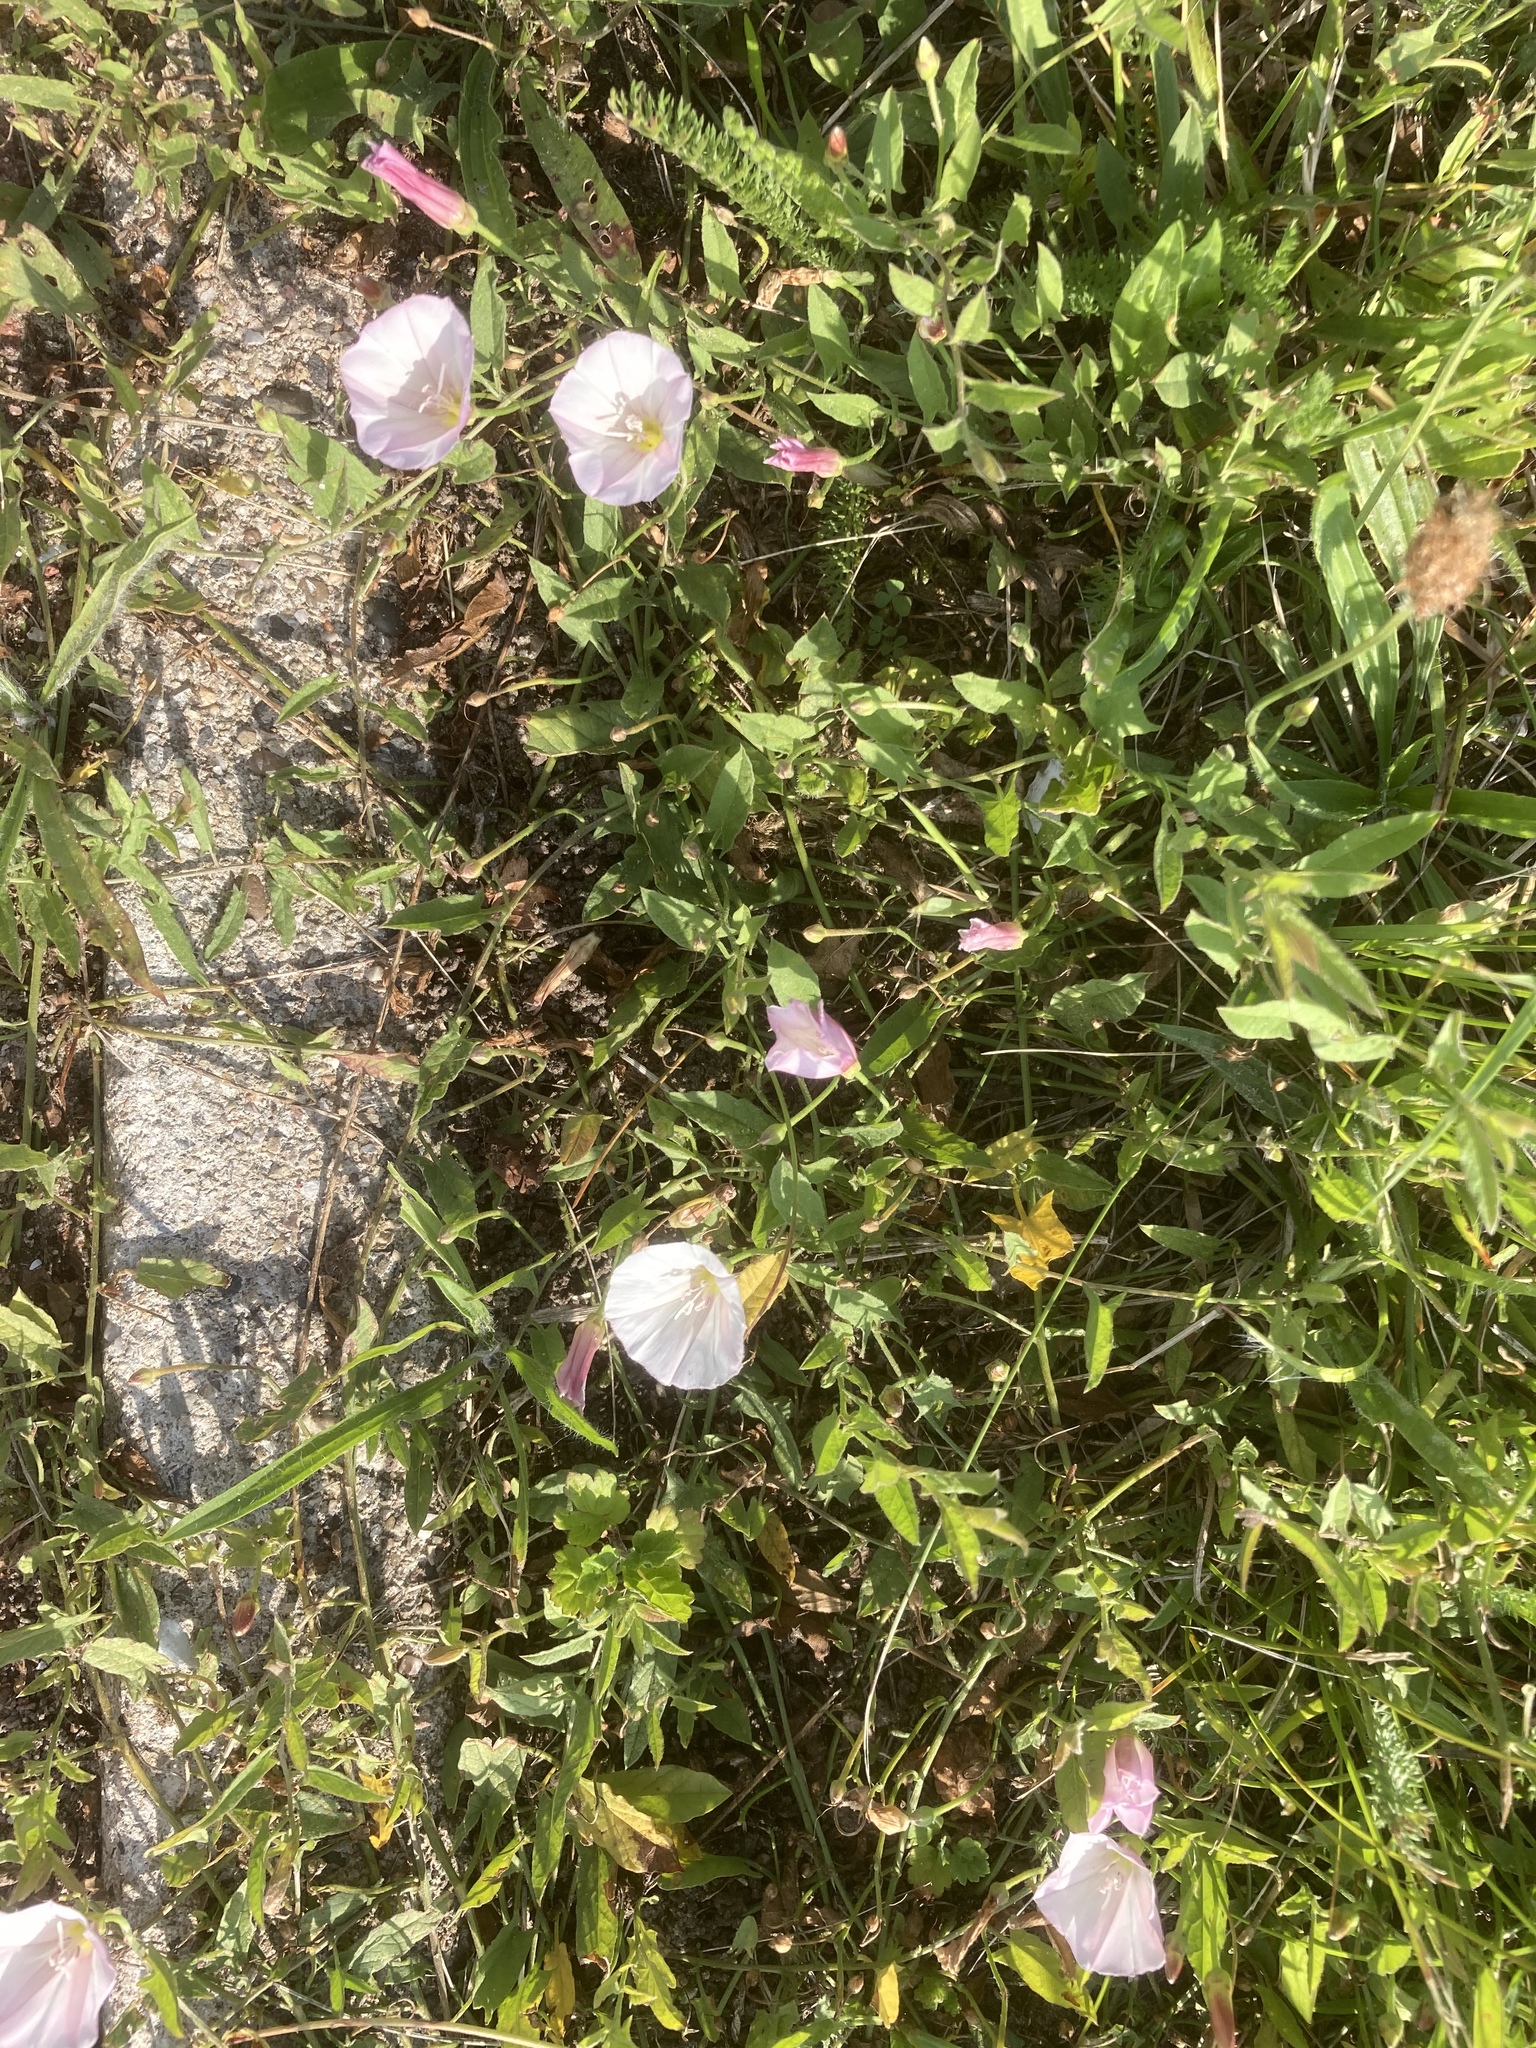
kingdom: Plantae
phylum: Tracheophyta
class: Magnoliopsida
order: Solanales
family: Convolvulaceae
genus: Convolvulus
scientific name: Convolvulus arvensis
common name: Field bindweed
